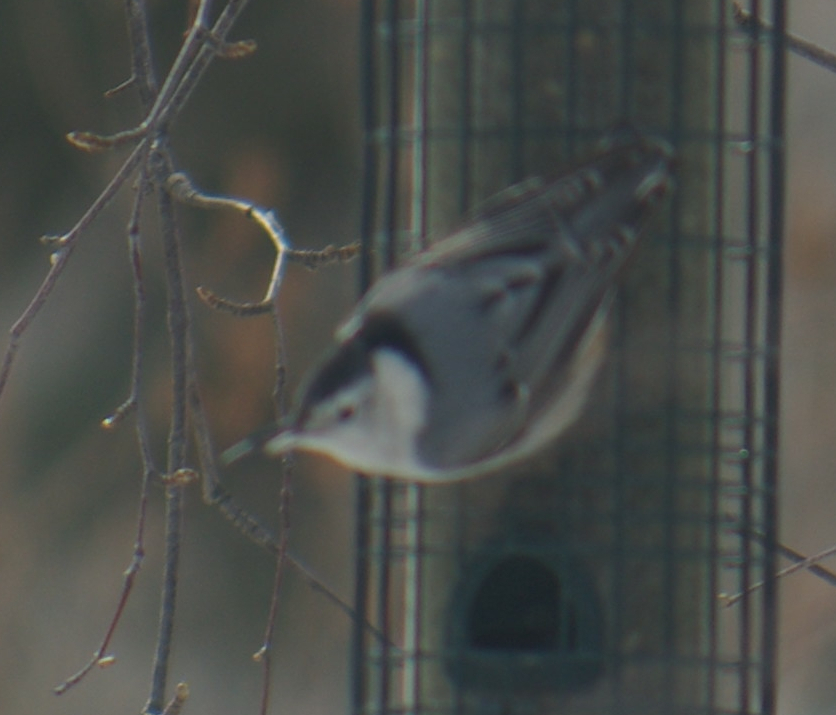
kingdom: Animalia
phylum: Chordata
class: Aves
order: Passeriformes
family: Sittidae
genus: Sitta
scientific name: Sitta carolinensis
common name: White-breasted nuthatch
